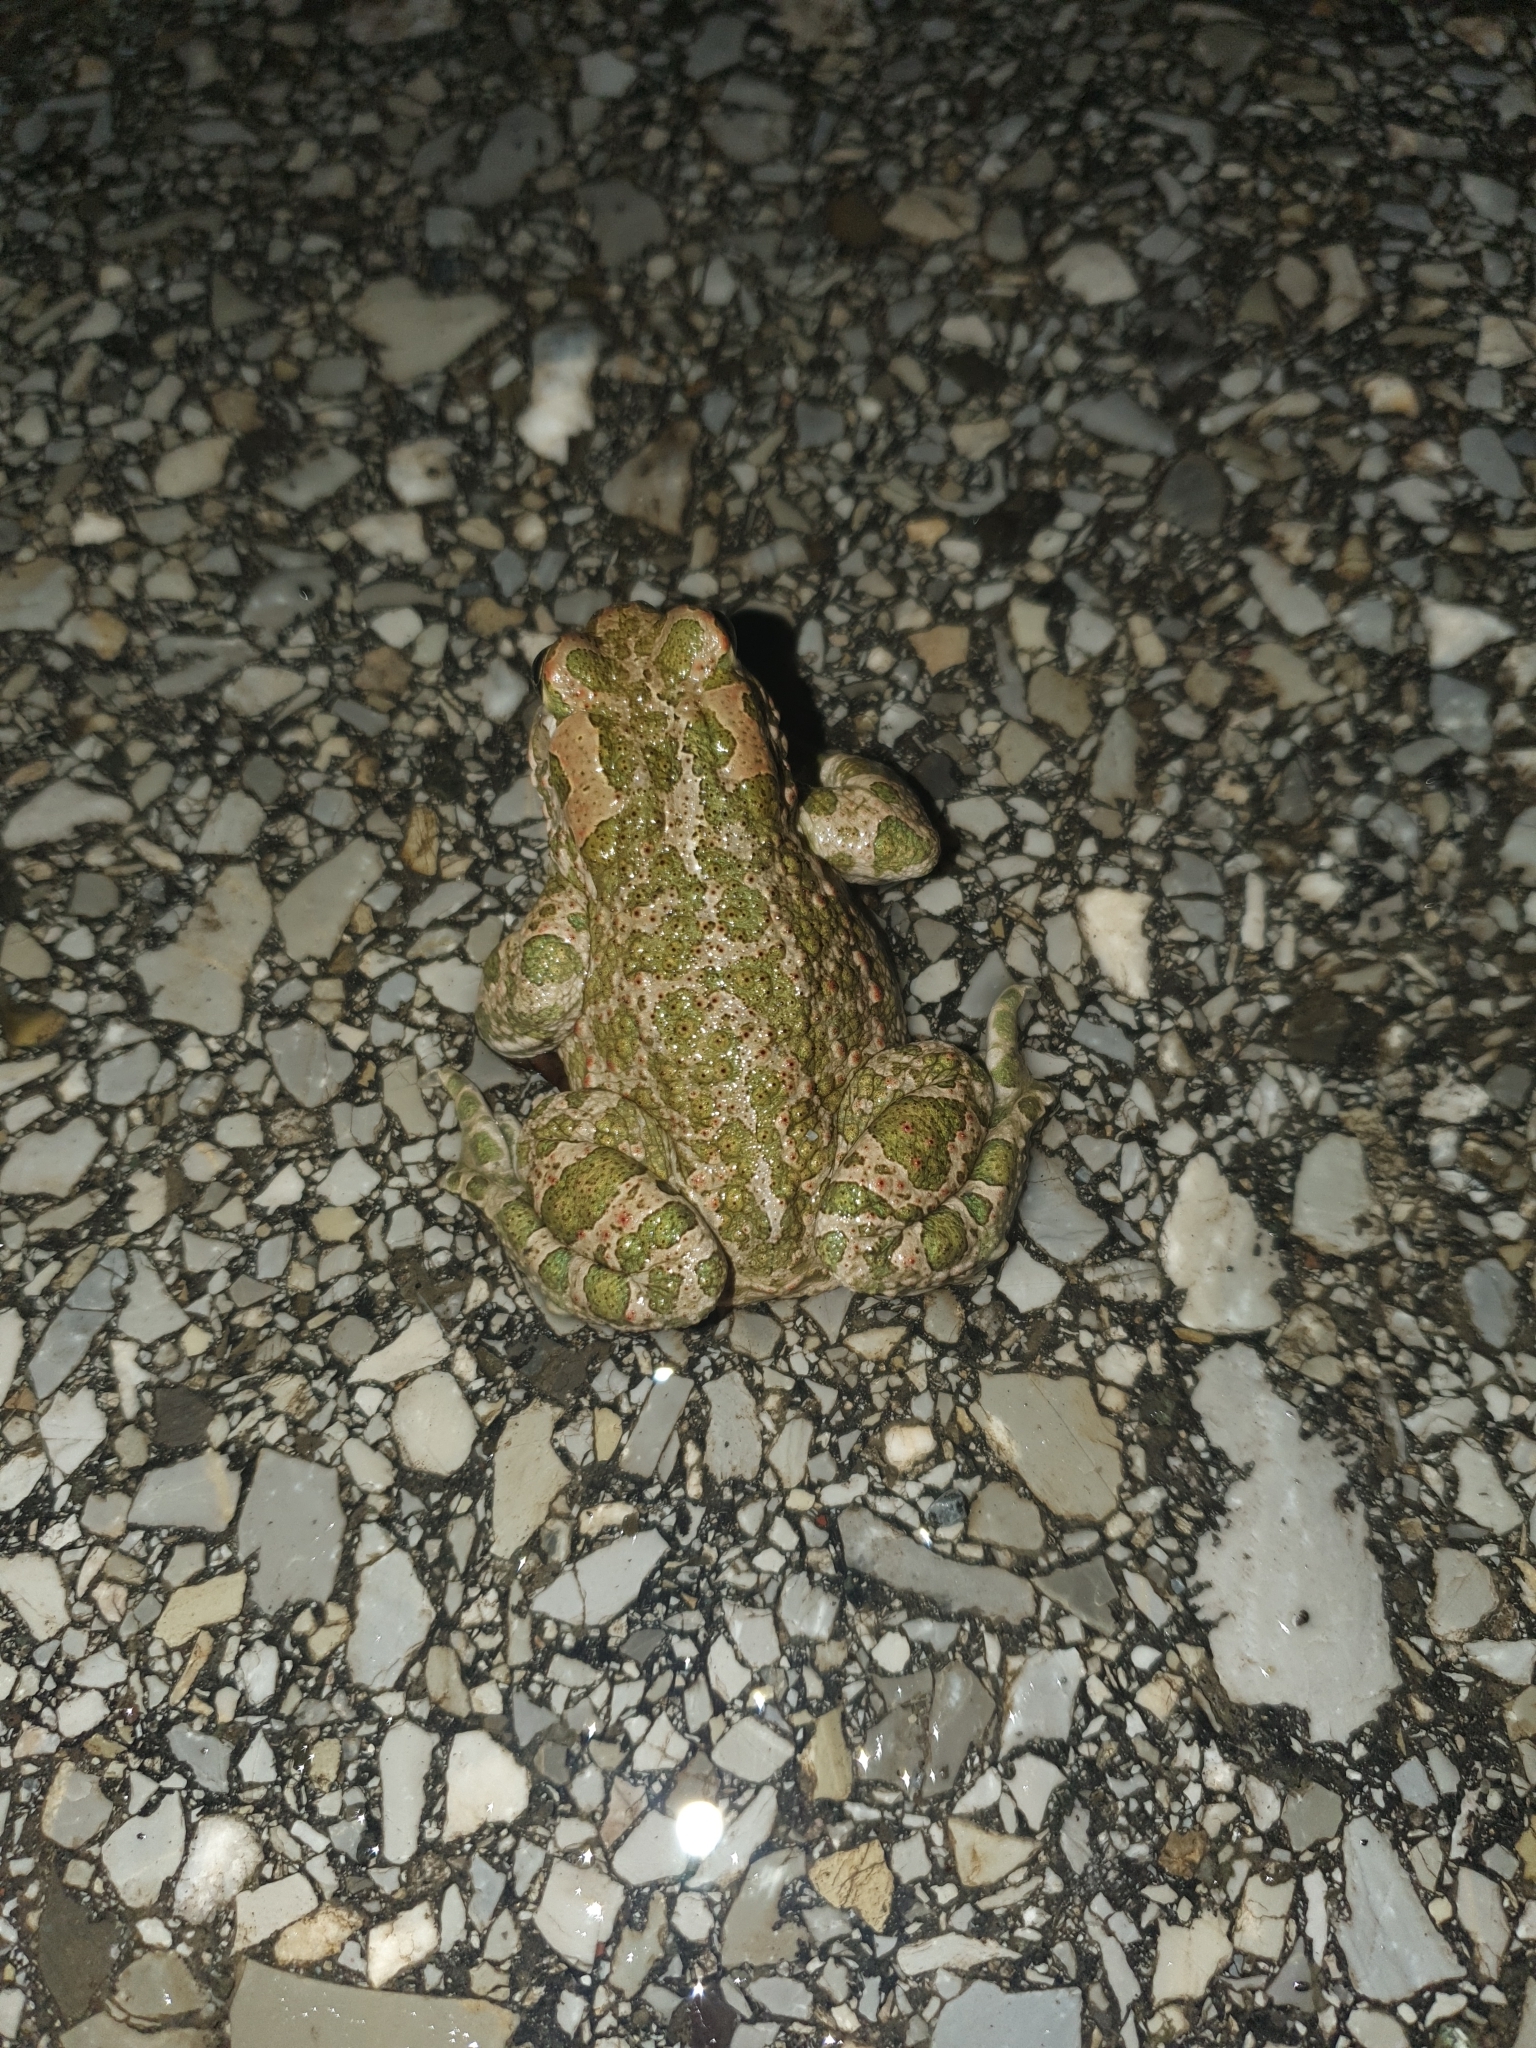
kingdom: Animalia
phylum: Chordata
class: Amphibia
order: Anura
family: Bufonidae
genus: Bufotes
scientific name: Bufotes viridis
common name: European green toad
